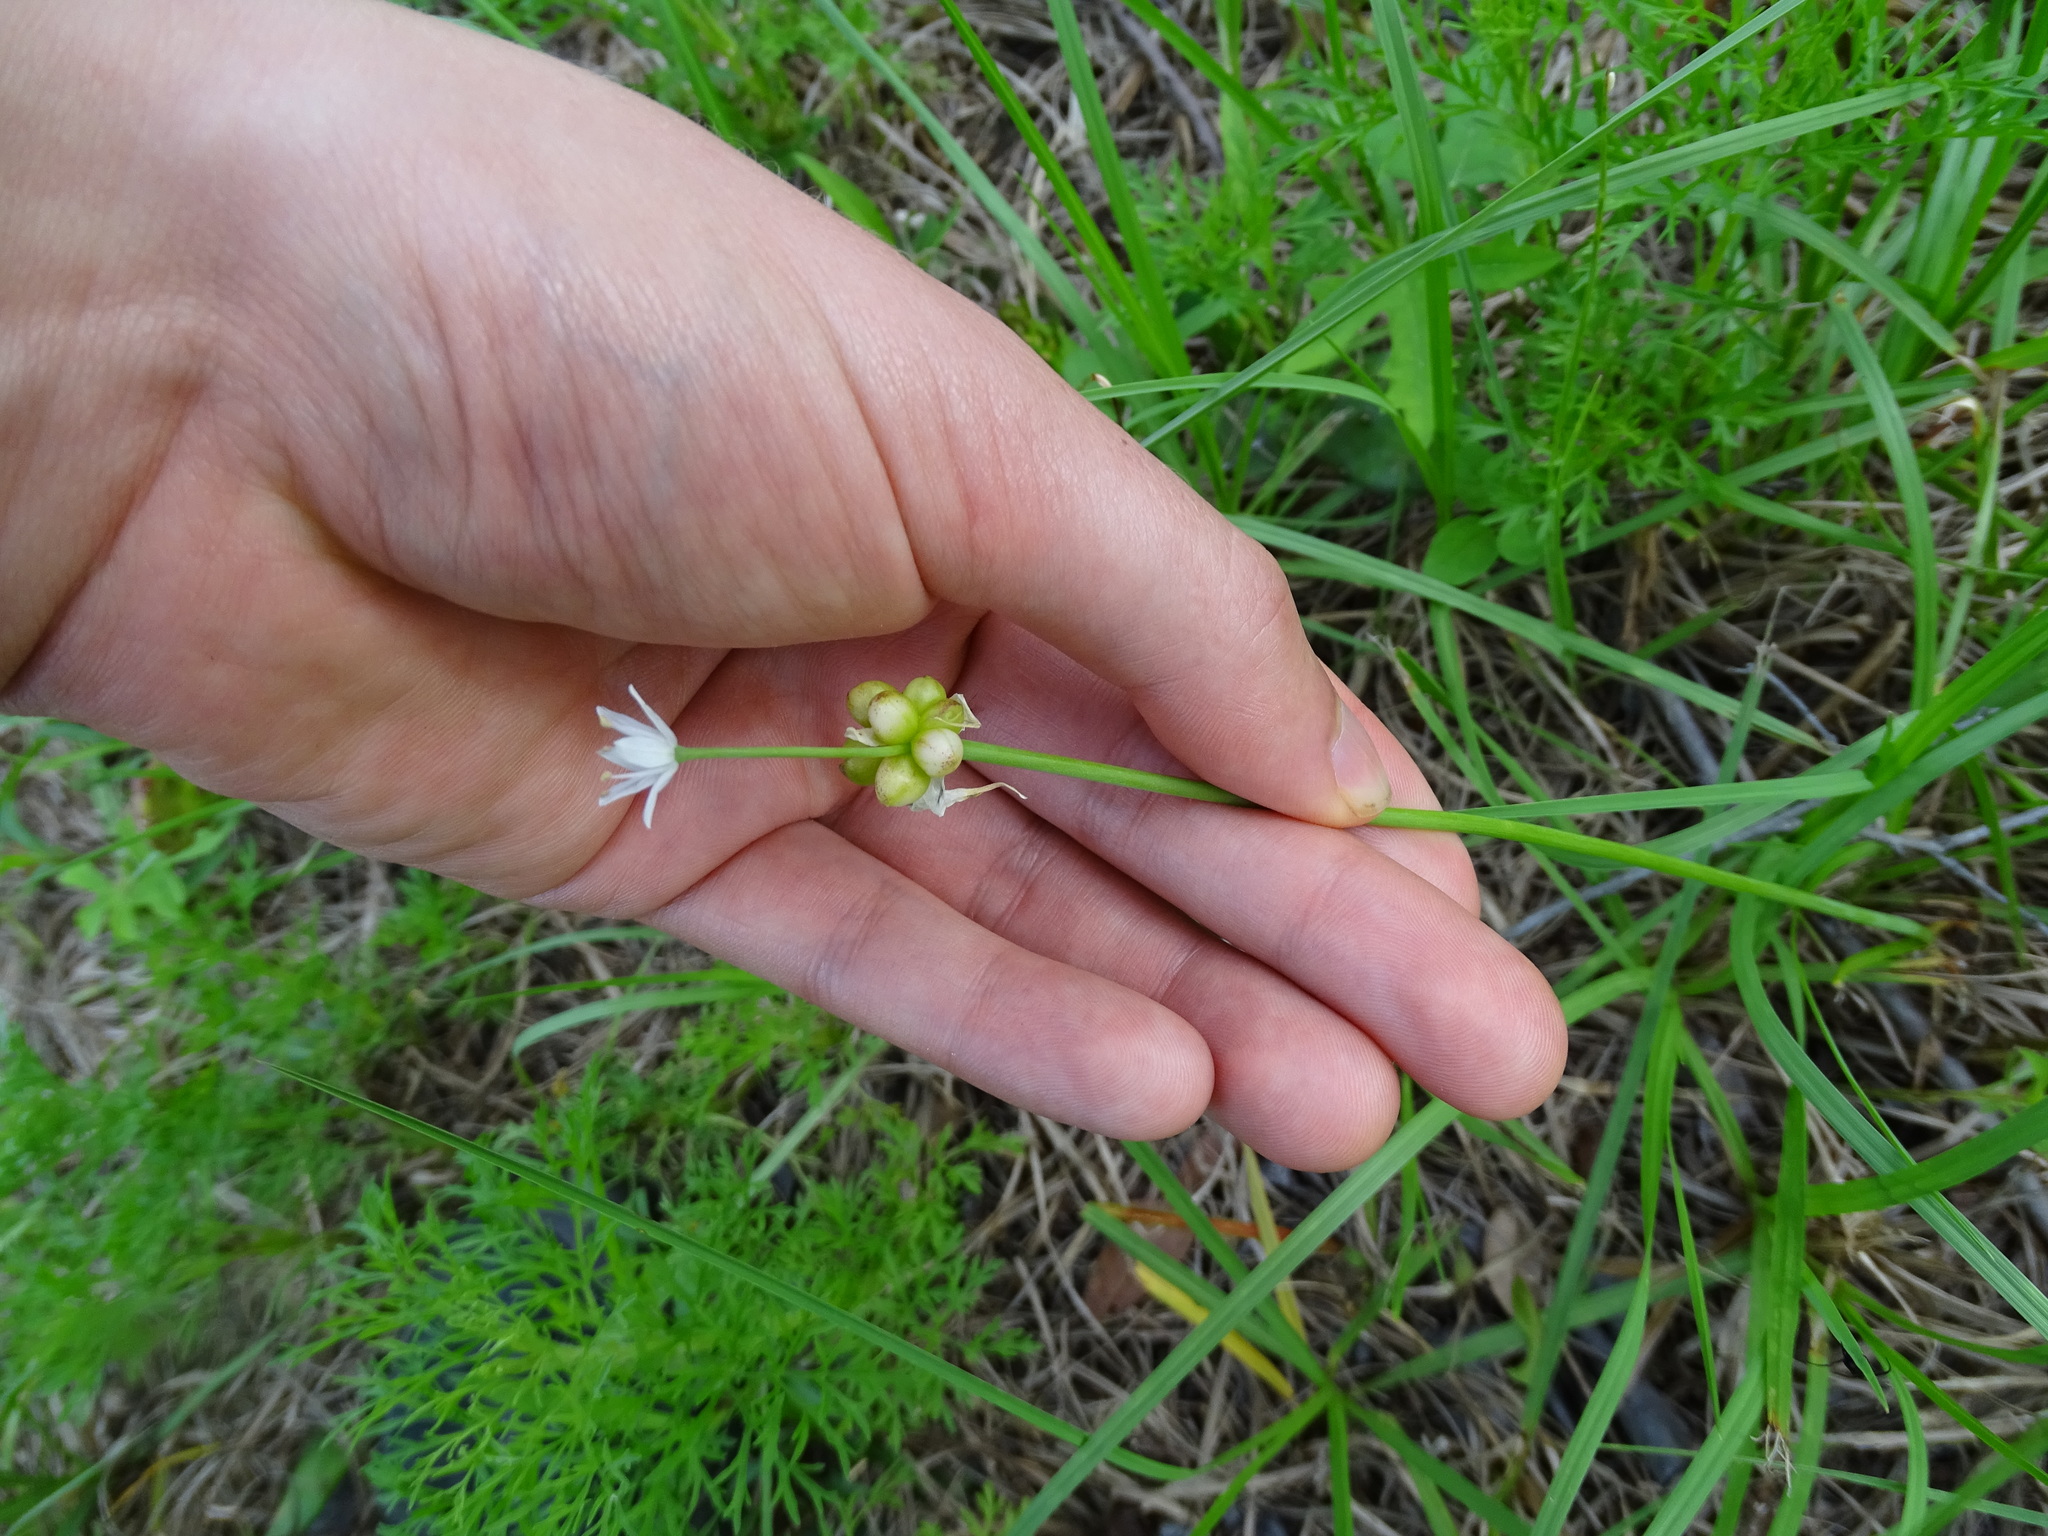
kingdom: Plantae
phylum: Tracheophyta
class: Liliopsida
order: Asparagales
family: Amaryllidaceae
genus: Allium
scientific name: Allium canadense
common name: Meadow garlic
